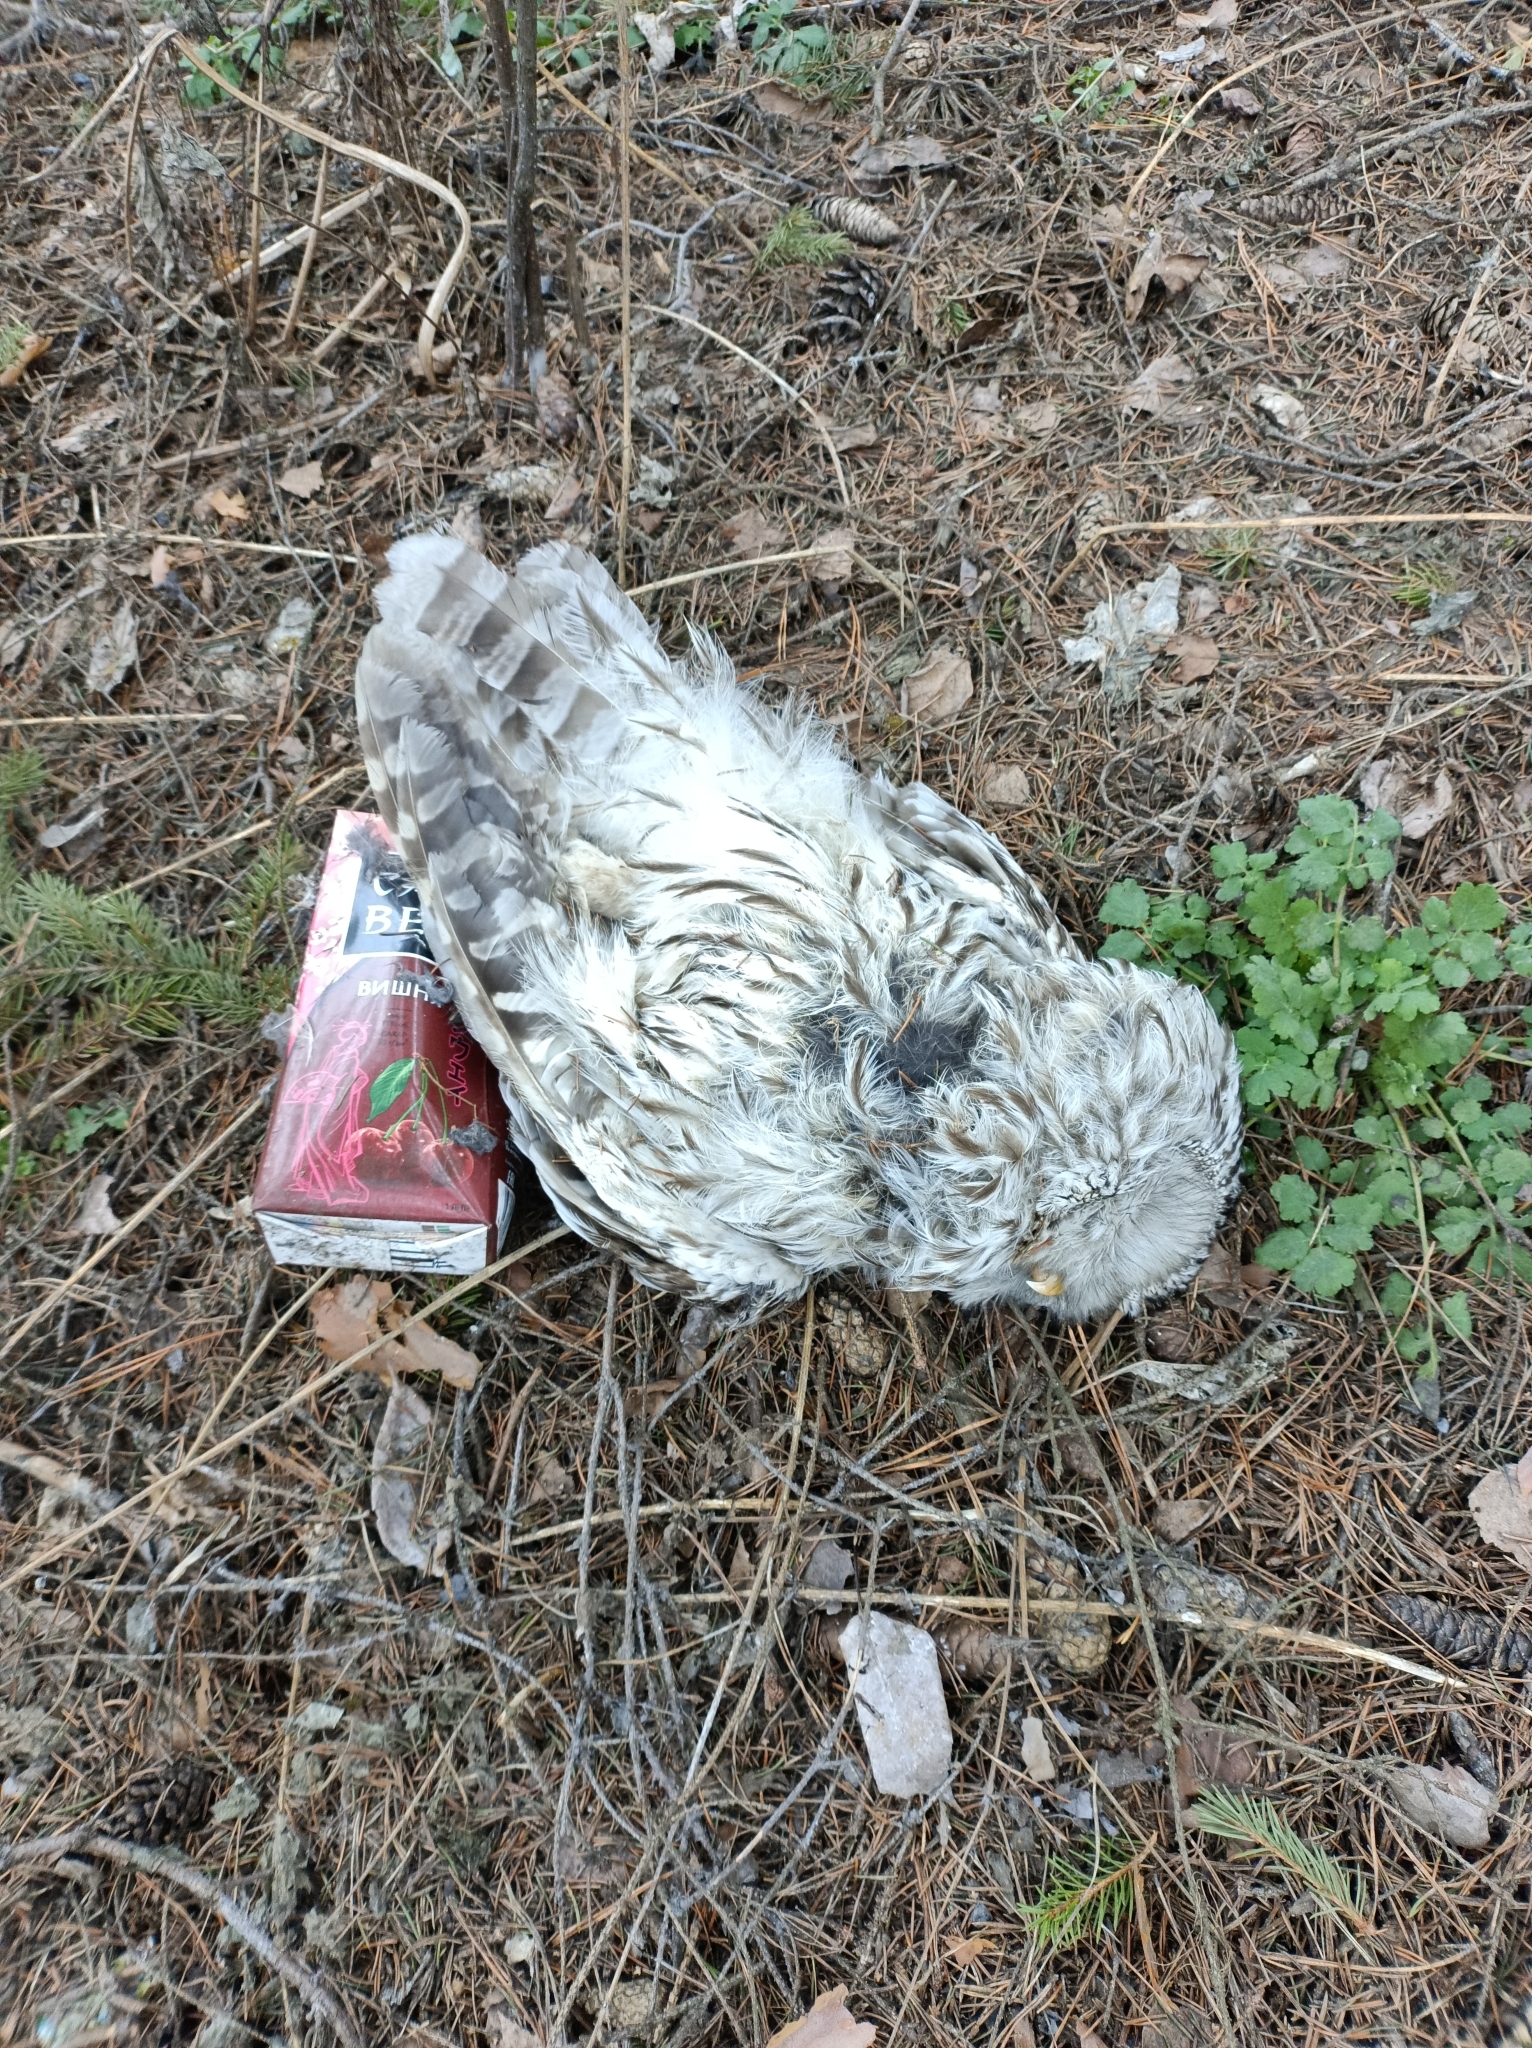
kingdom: Animalia
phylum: Chordata
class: Aves
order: Strigiformes
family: Strigidae
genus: Strix
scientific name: Strix uralensis
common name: Ural owl
